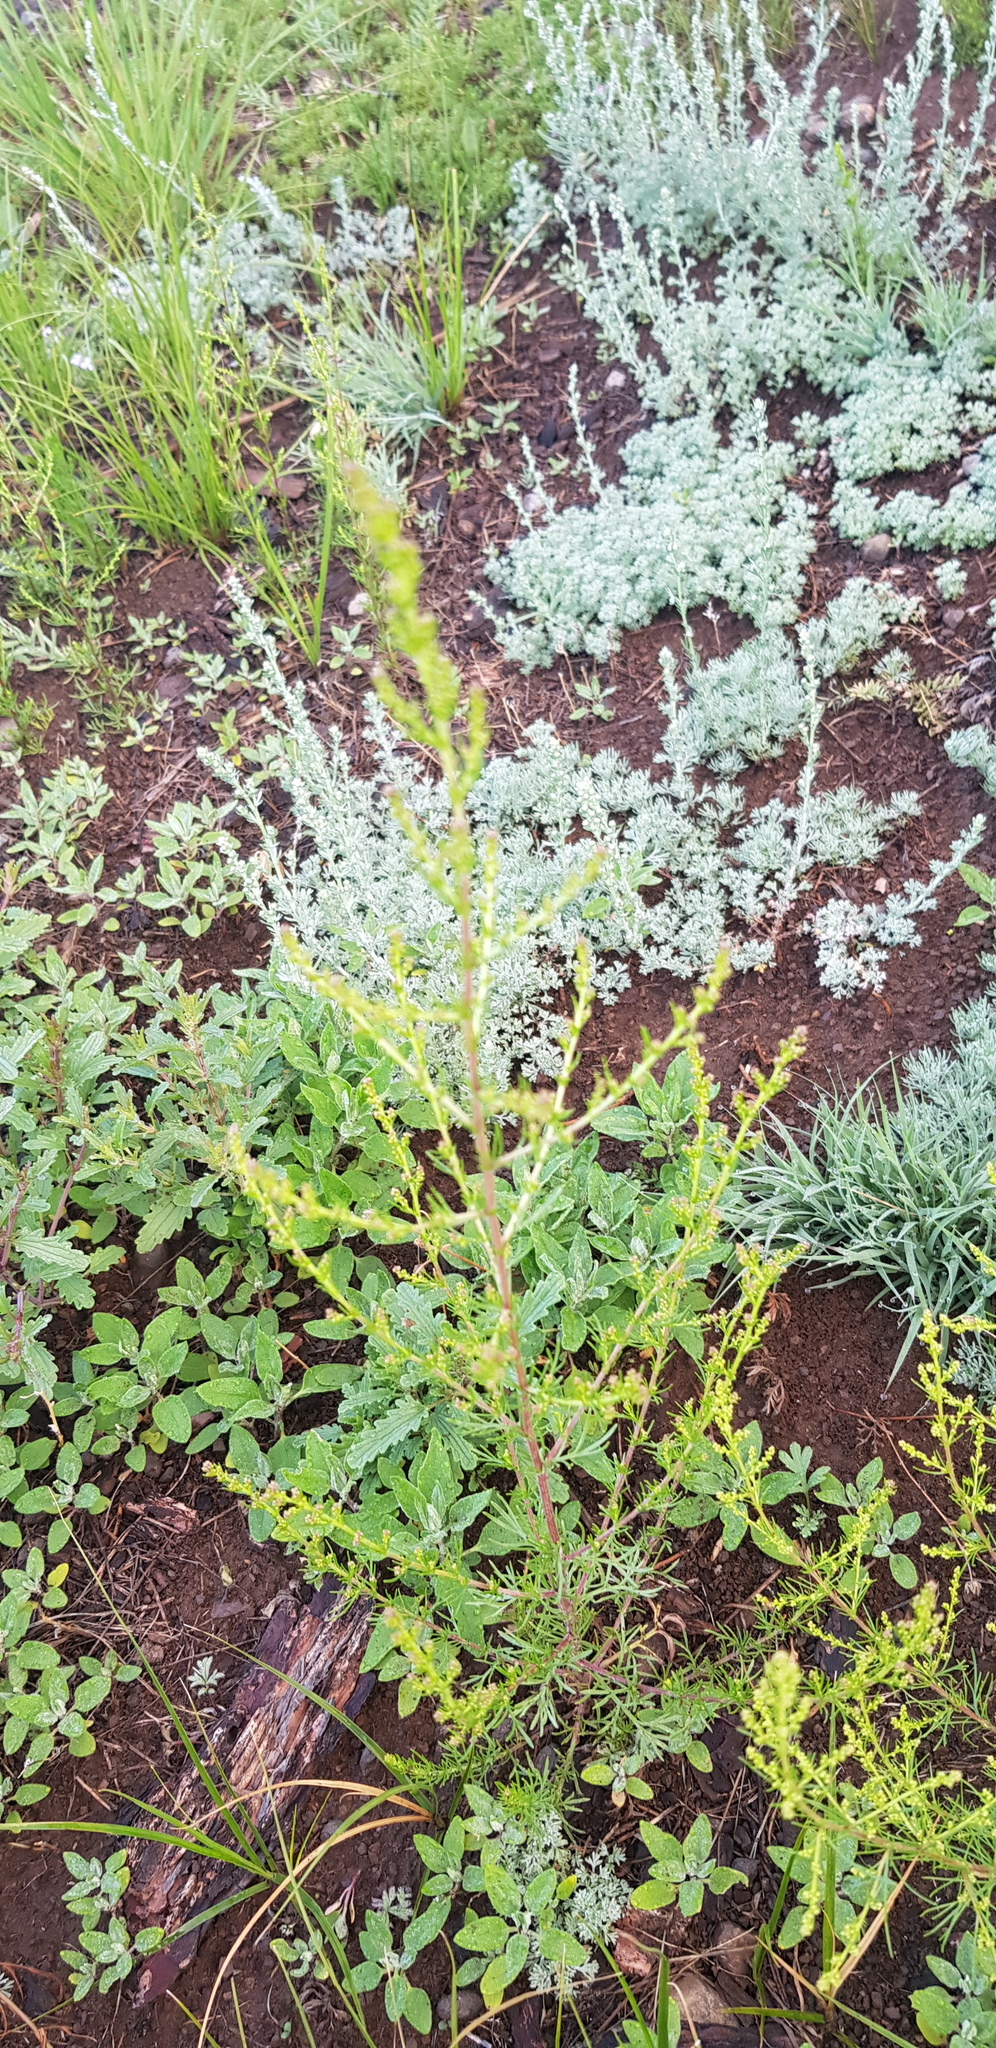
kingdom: Plantae
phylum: Tracheophyta
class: Magnoliopsida
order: Asterales
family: Asteraceae
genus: Artemisia
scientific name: Artemisia scoparia
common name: Redstem wormwood
